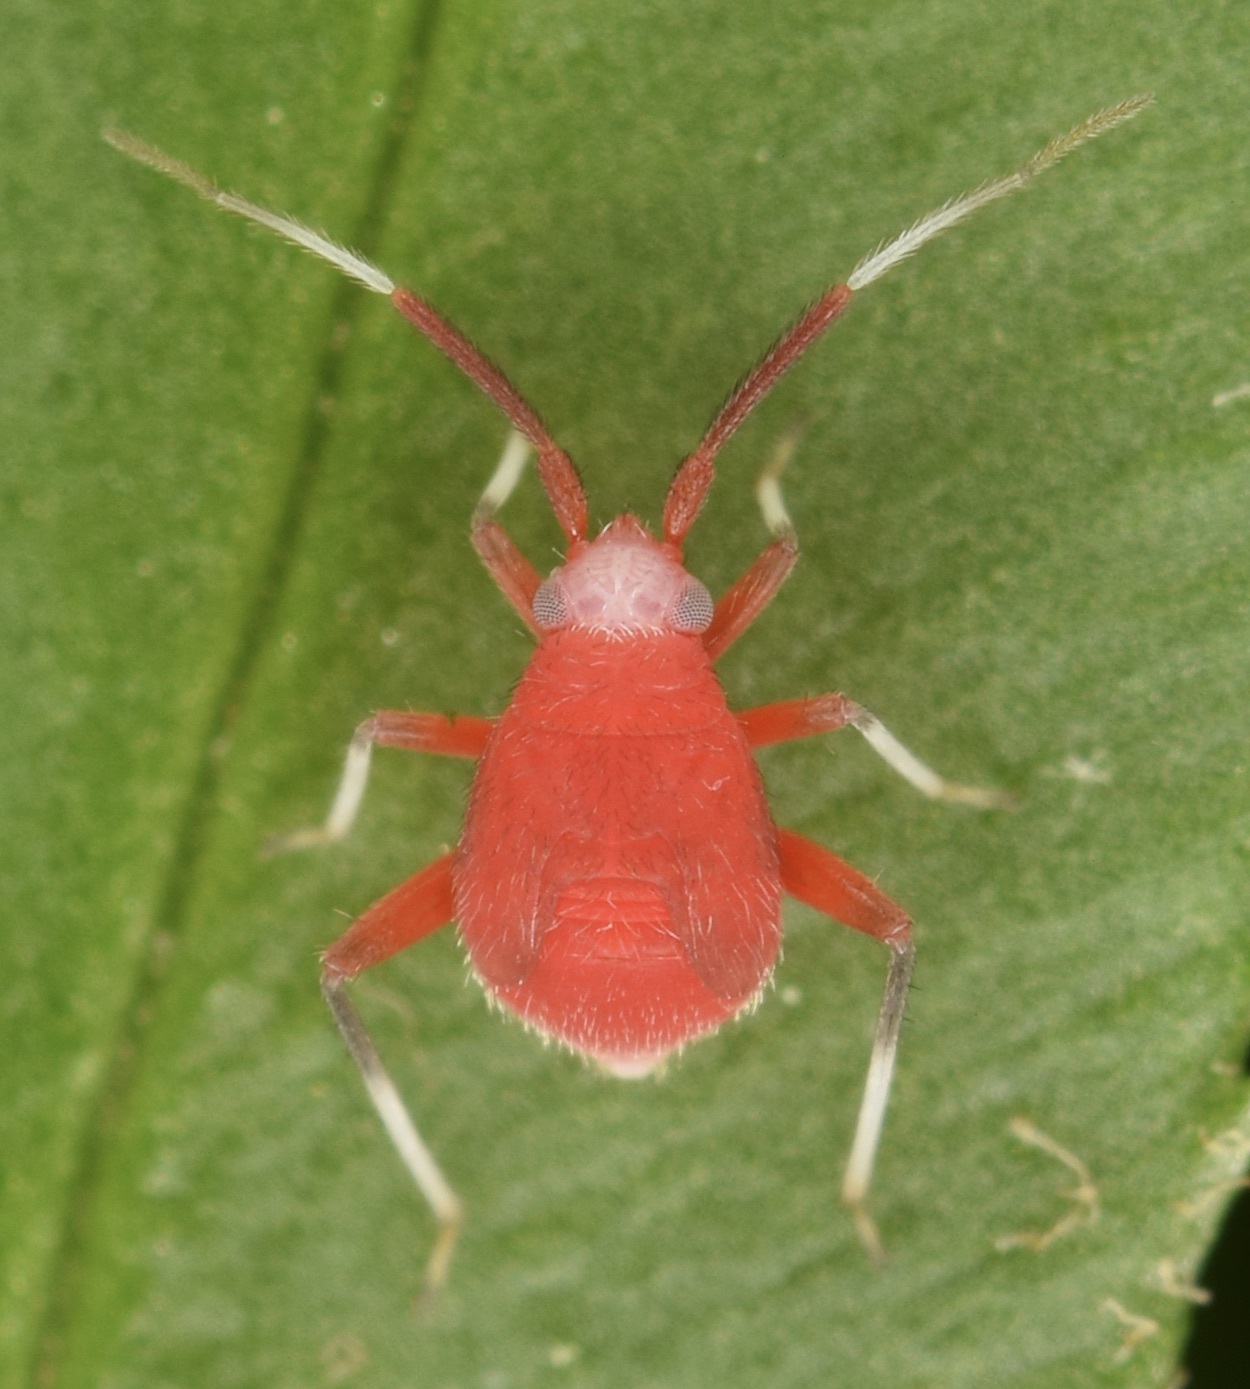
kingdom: Animalia
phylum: Arthropoda
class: Insecta
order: Hemiptera
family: Miridae
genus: Coccobaphes
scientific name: Coccobaphes frontifer
